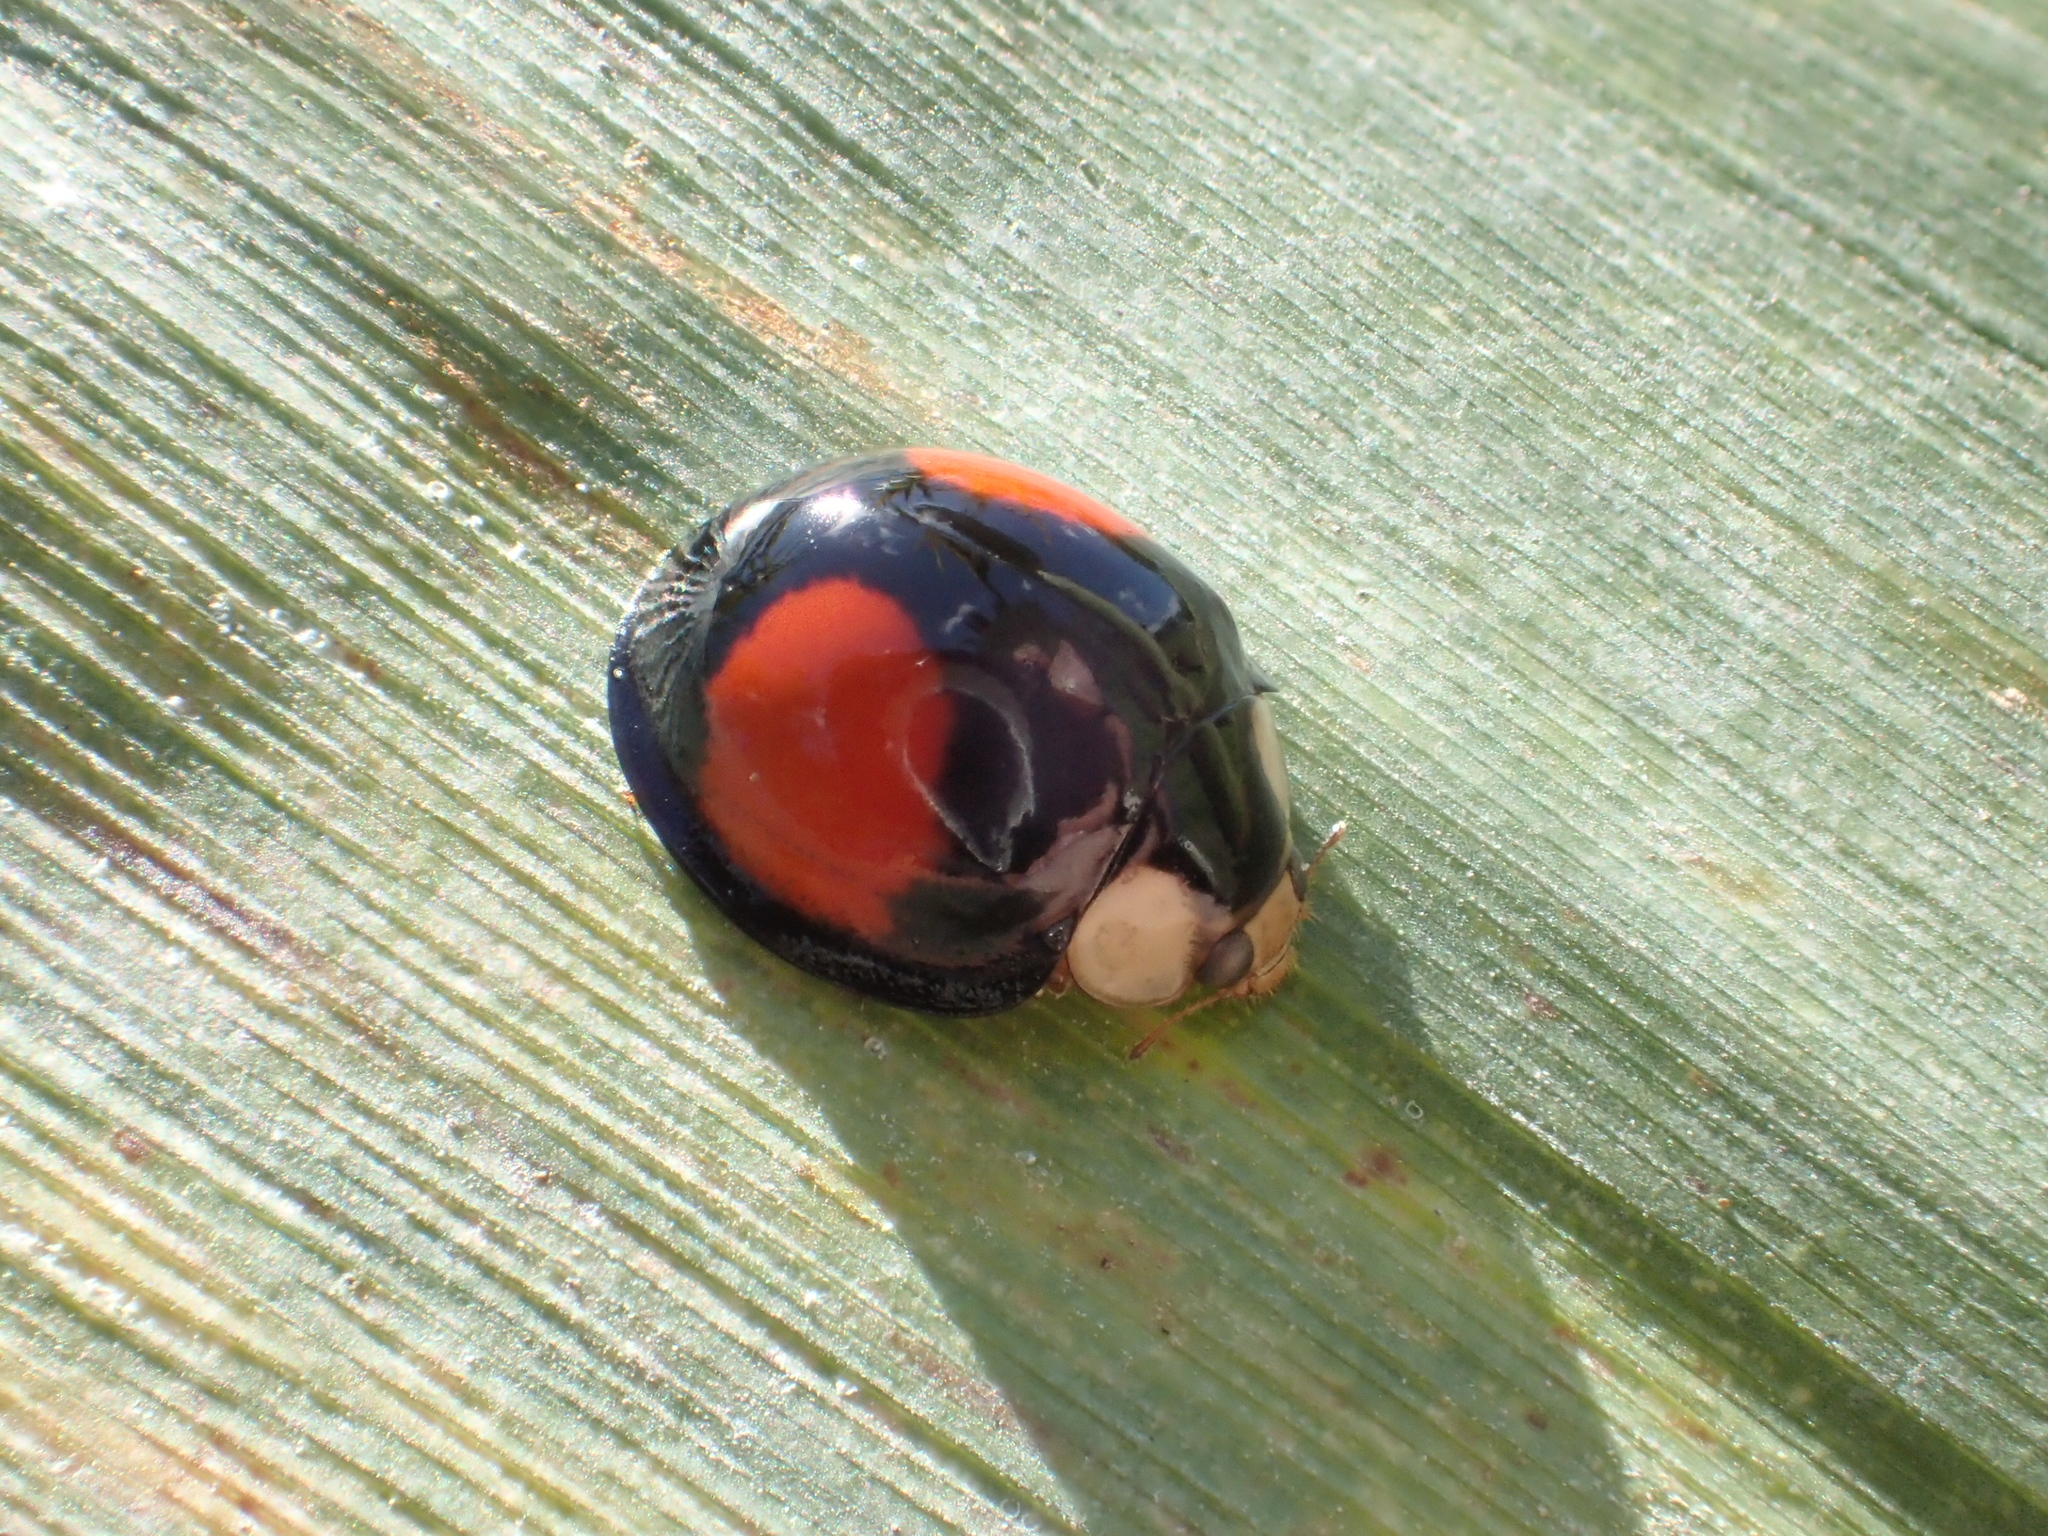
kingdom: Animalia
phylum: Arthropoda
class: Insecta
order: Coleoptera
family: Coccinellidae
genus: Coelophora
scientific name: Coelophora saucia
